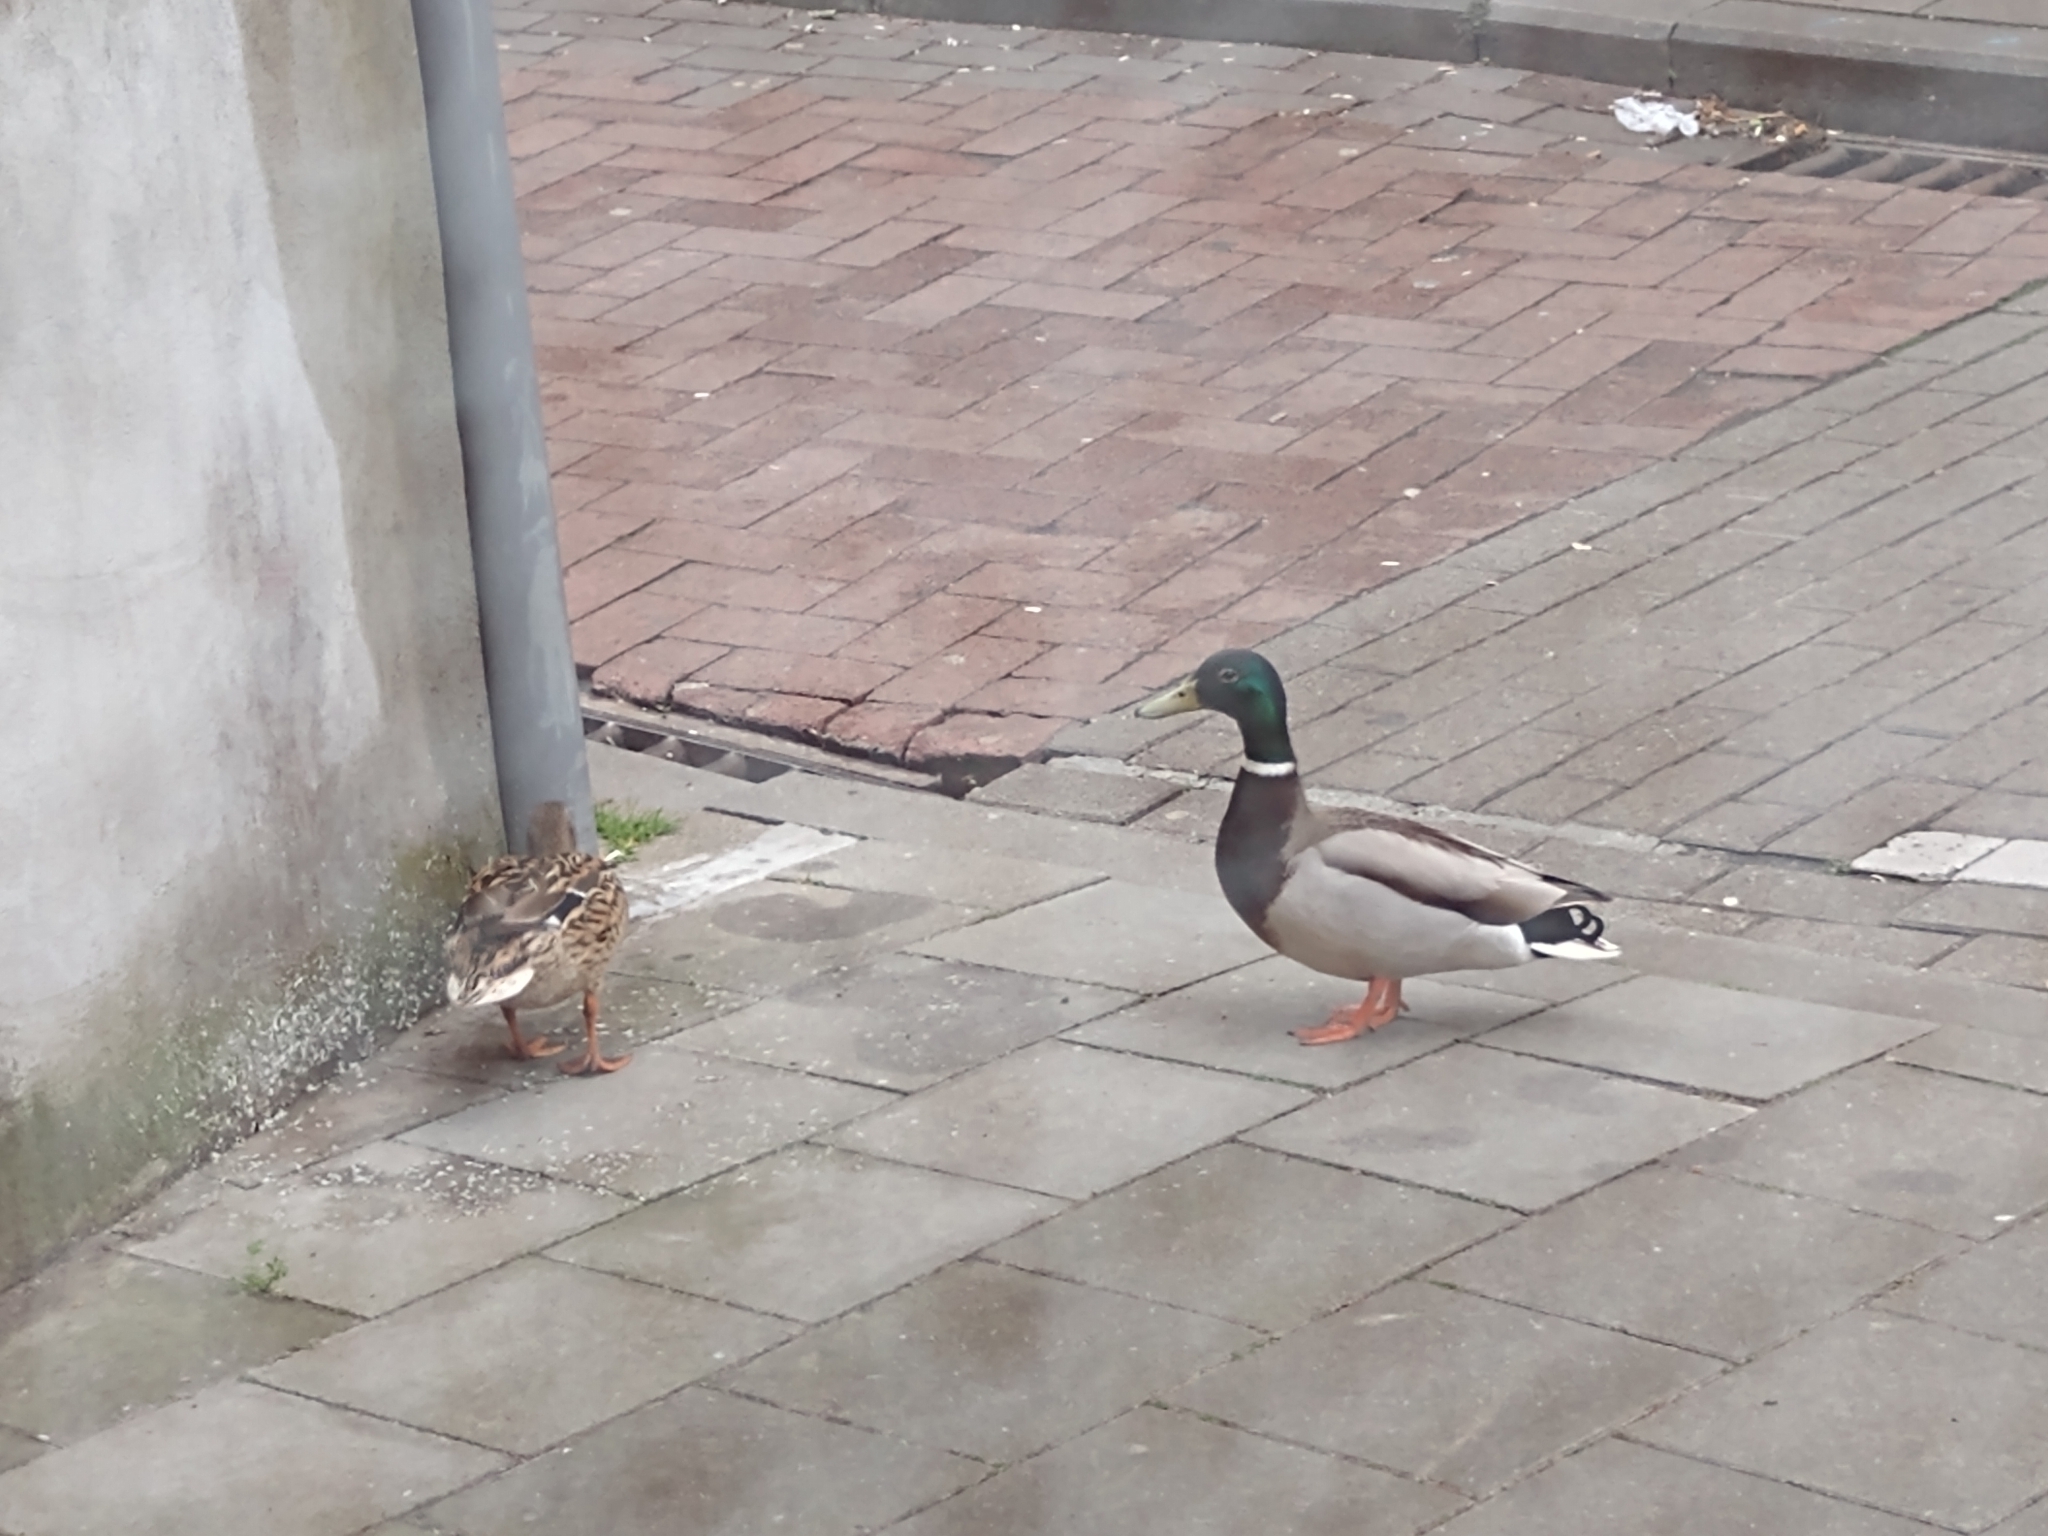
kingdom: Animalia
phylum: Chordata
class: Aves
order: Anseriformes
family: Anatidae
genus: Anas
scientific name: Anas platyrhynchos
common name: Mallard
